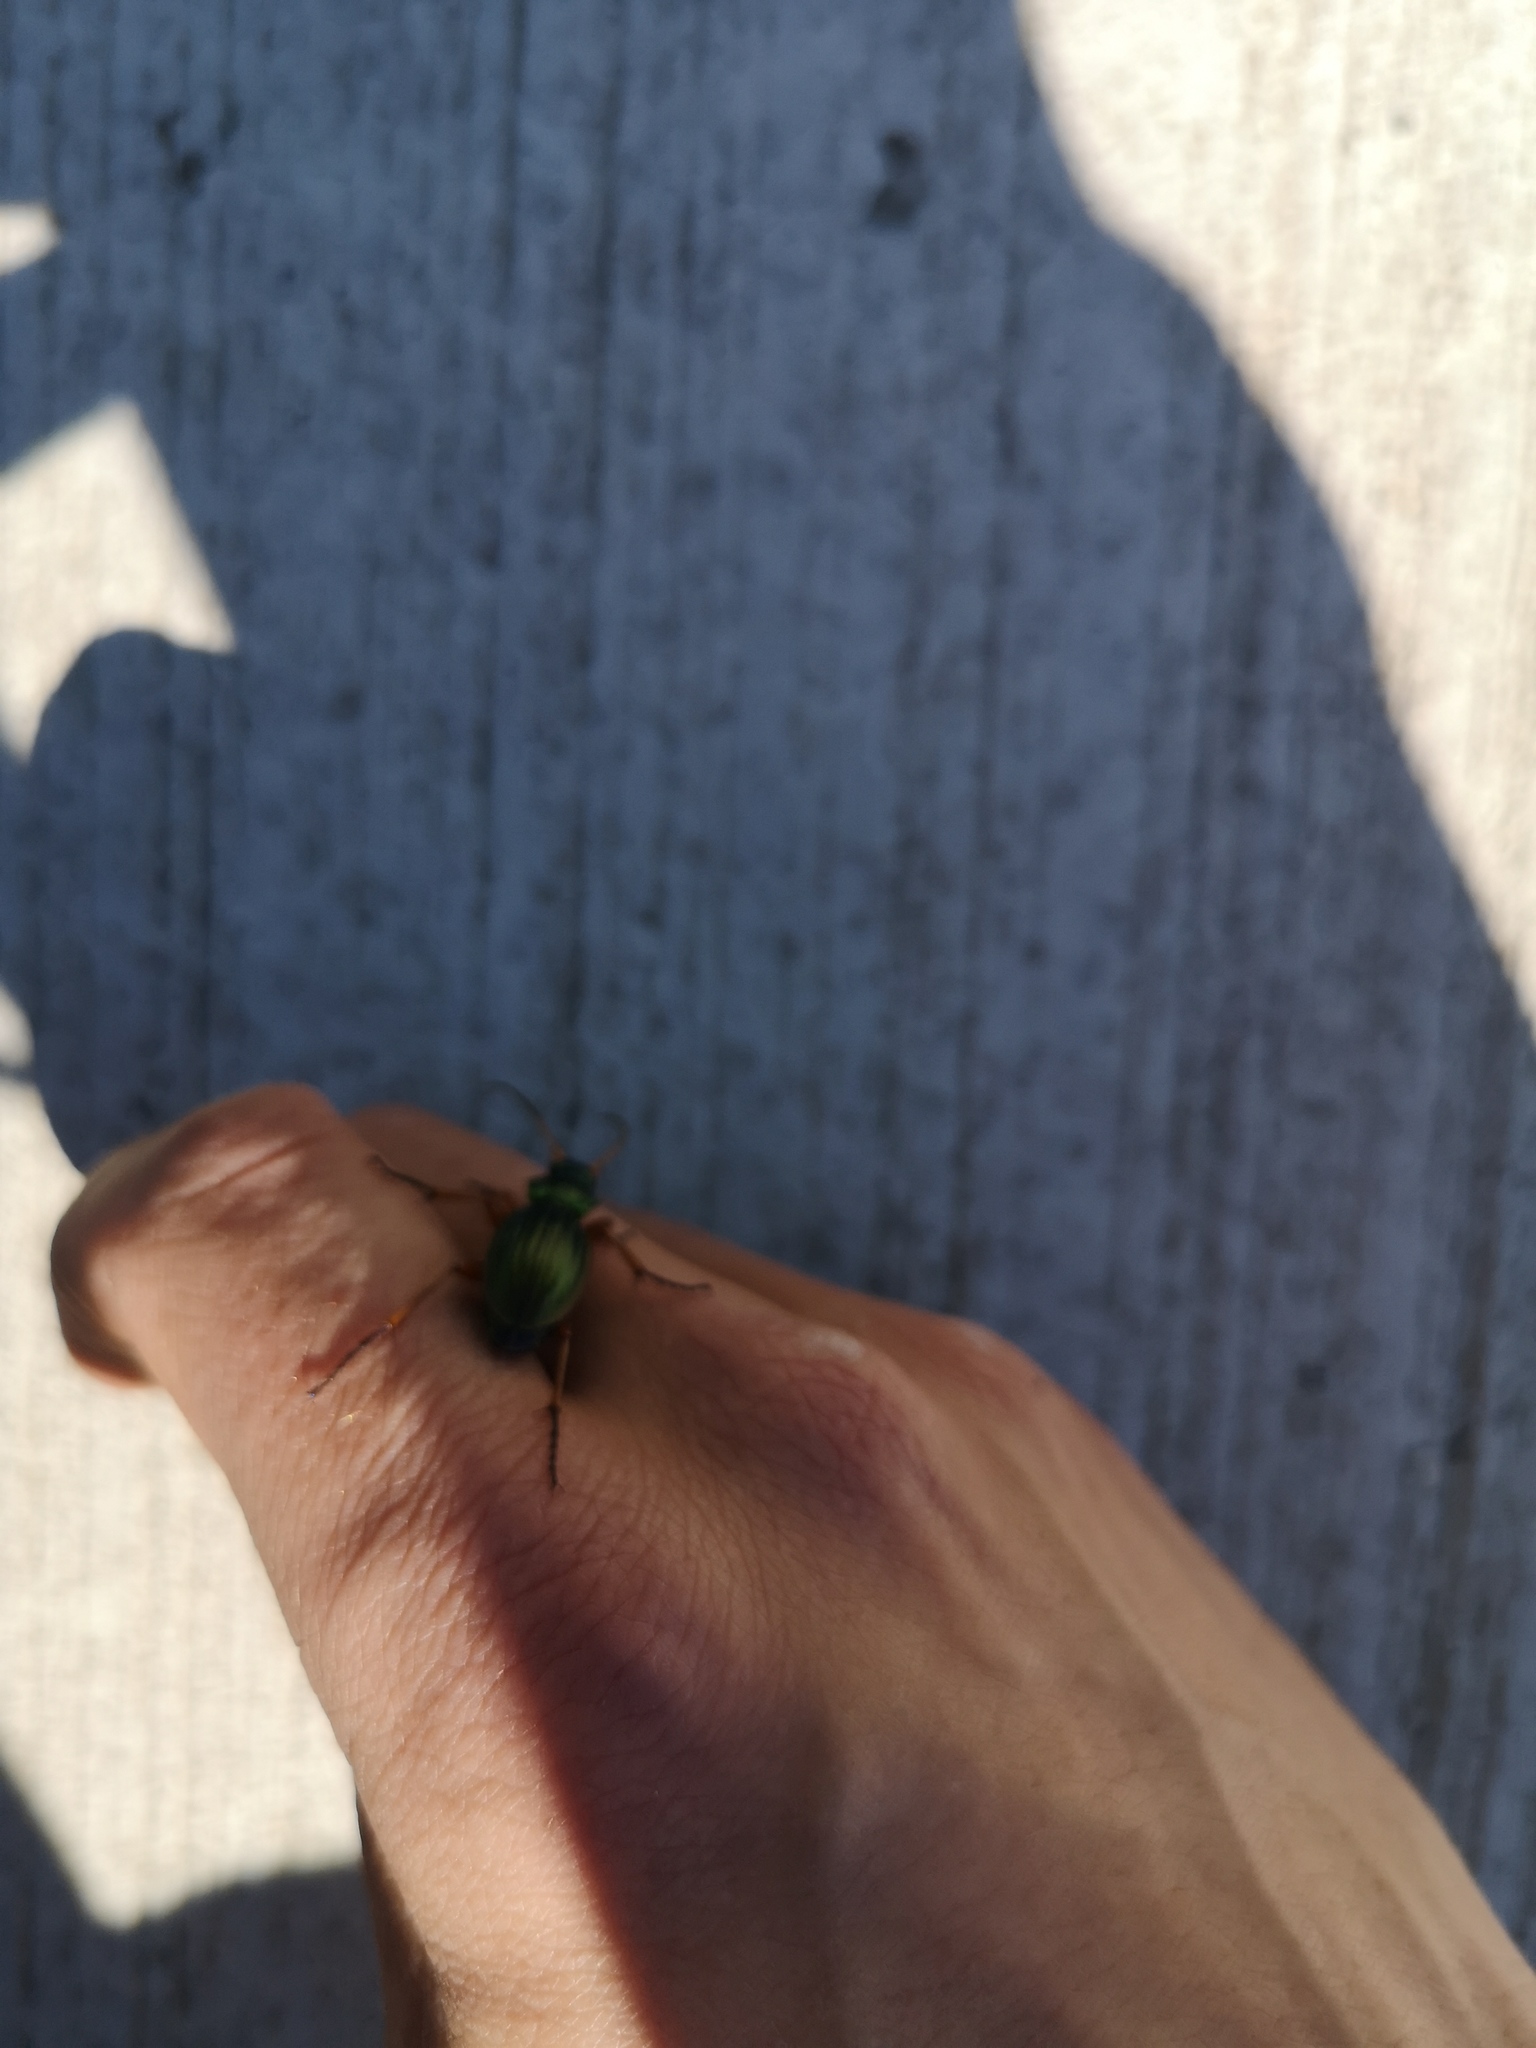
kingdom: Animalia
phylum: Arthropoda
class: Insecta
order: Coleoptera
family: Carabidae
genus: Carabus
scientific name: Carabus auratus
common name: Golden ground beetle
